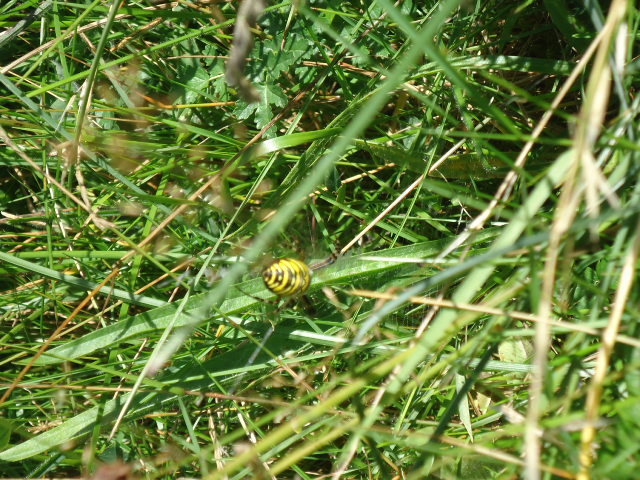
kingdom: Animalia
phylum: Arthropoda
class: Arachnida
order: Araneae
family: Araneidae
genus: Argiope
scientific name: Argiope bruennichi
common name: Wasp spider
